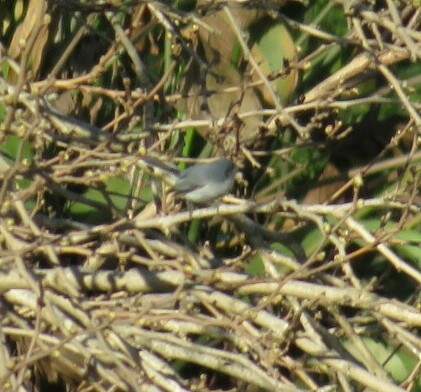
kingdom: Animalia
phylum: Chordata
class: Aves
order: Passeriformes
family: Polioptilidae
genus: Polioptila
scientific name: Polioptila dumicola
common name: Masked gnatcatcher
